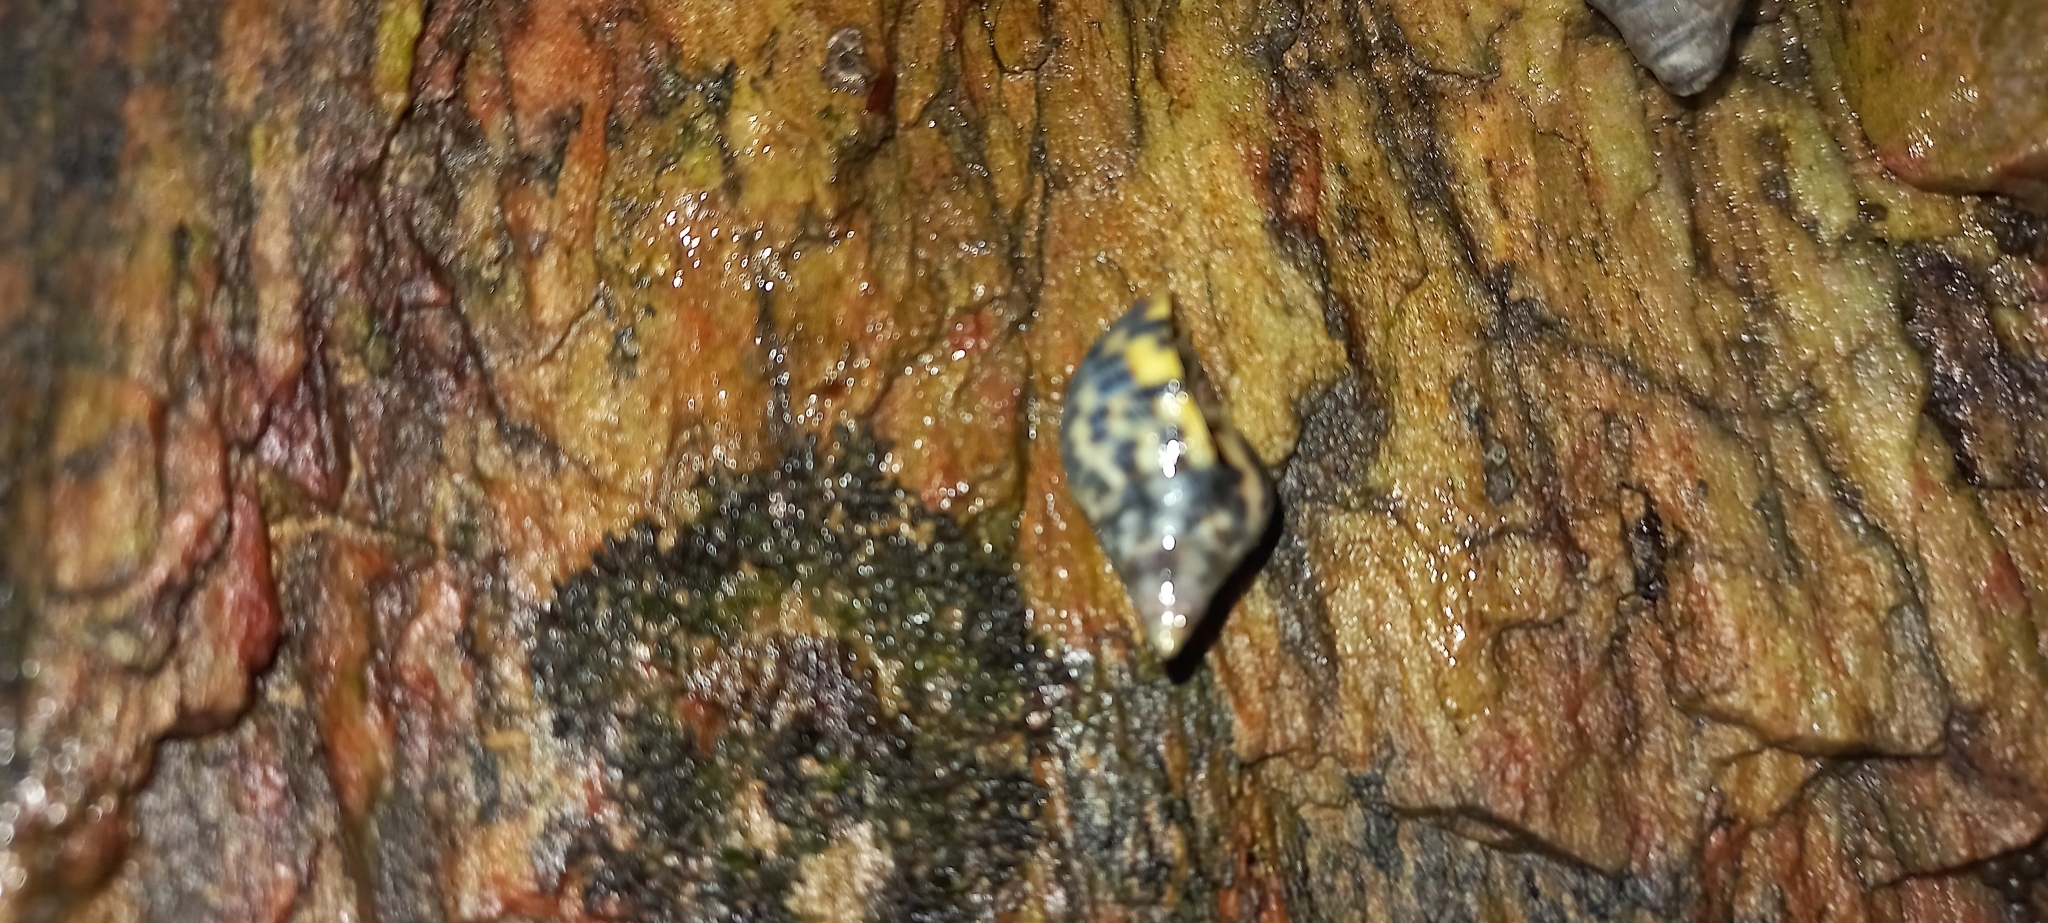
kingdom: Animalia
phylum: Mollusca
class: Gastropoda
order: Neogastropoda
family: Cominellidae
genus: Cominella
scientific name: Cominella maculosa
